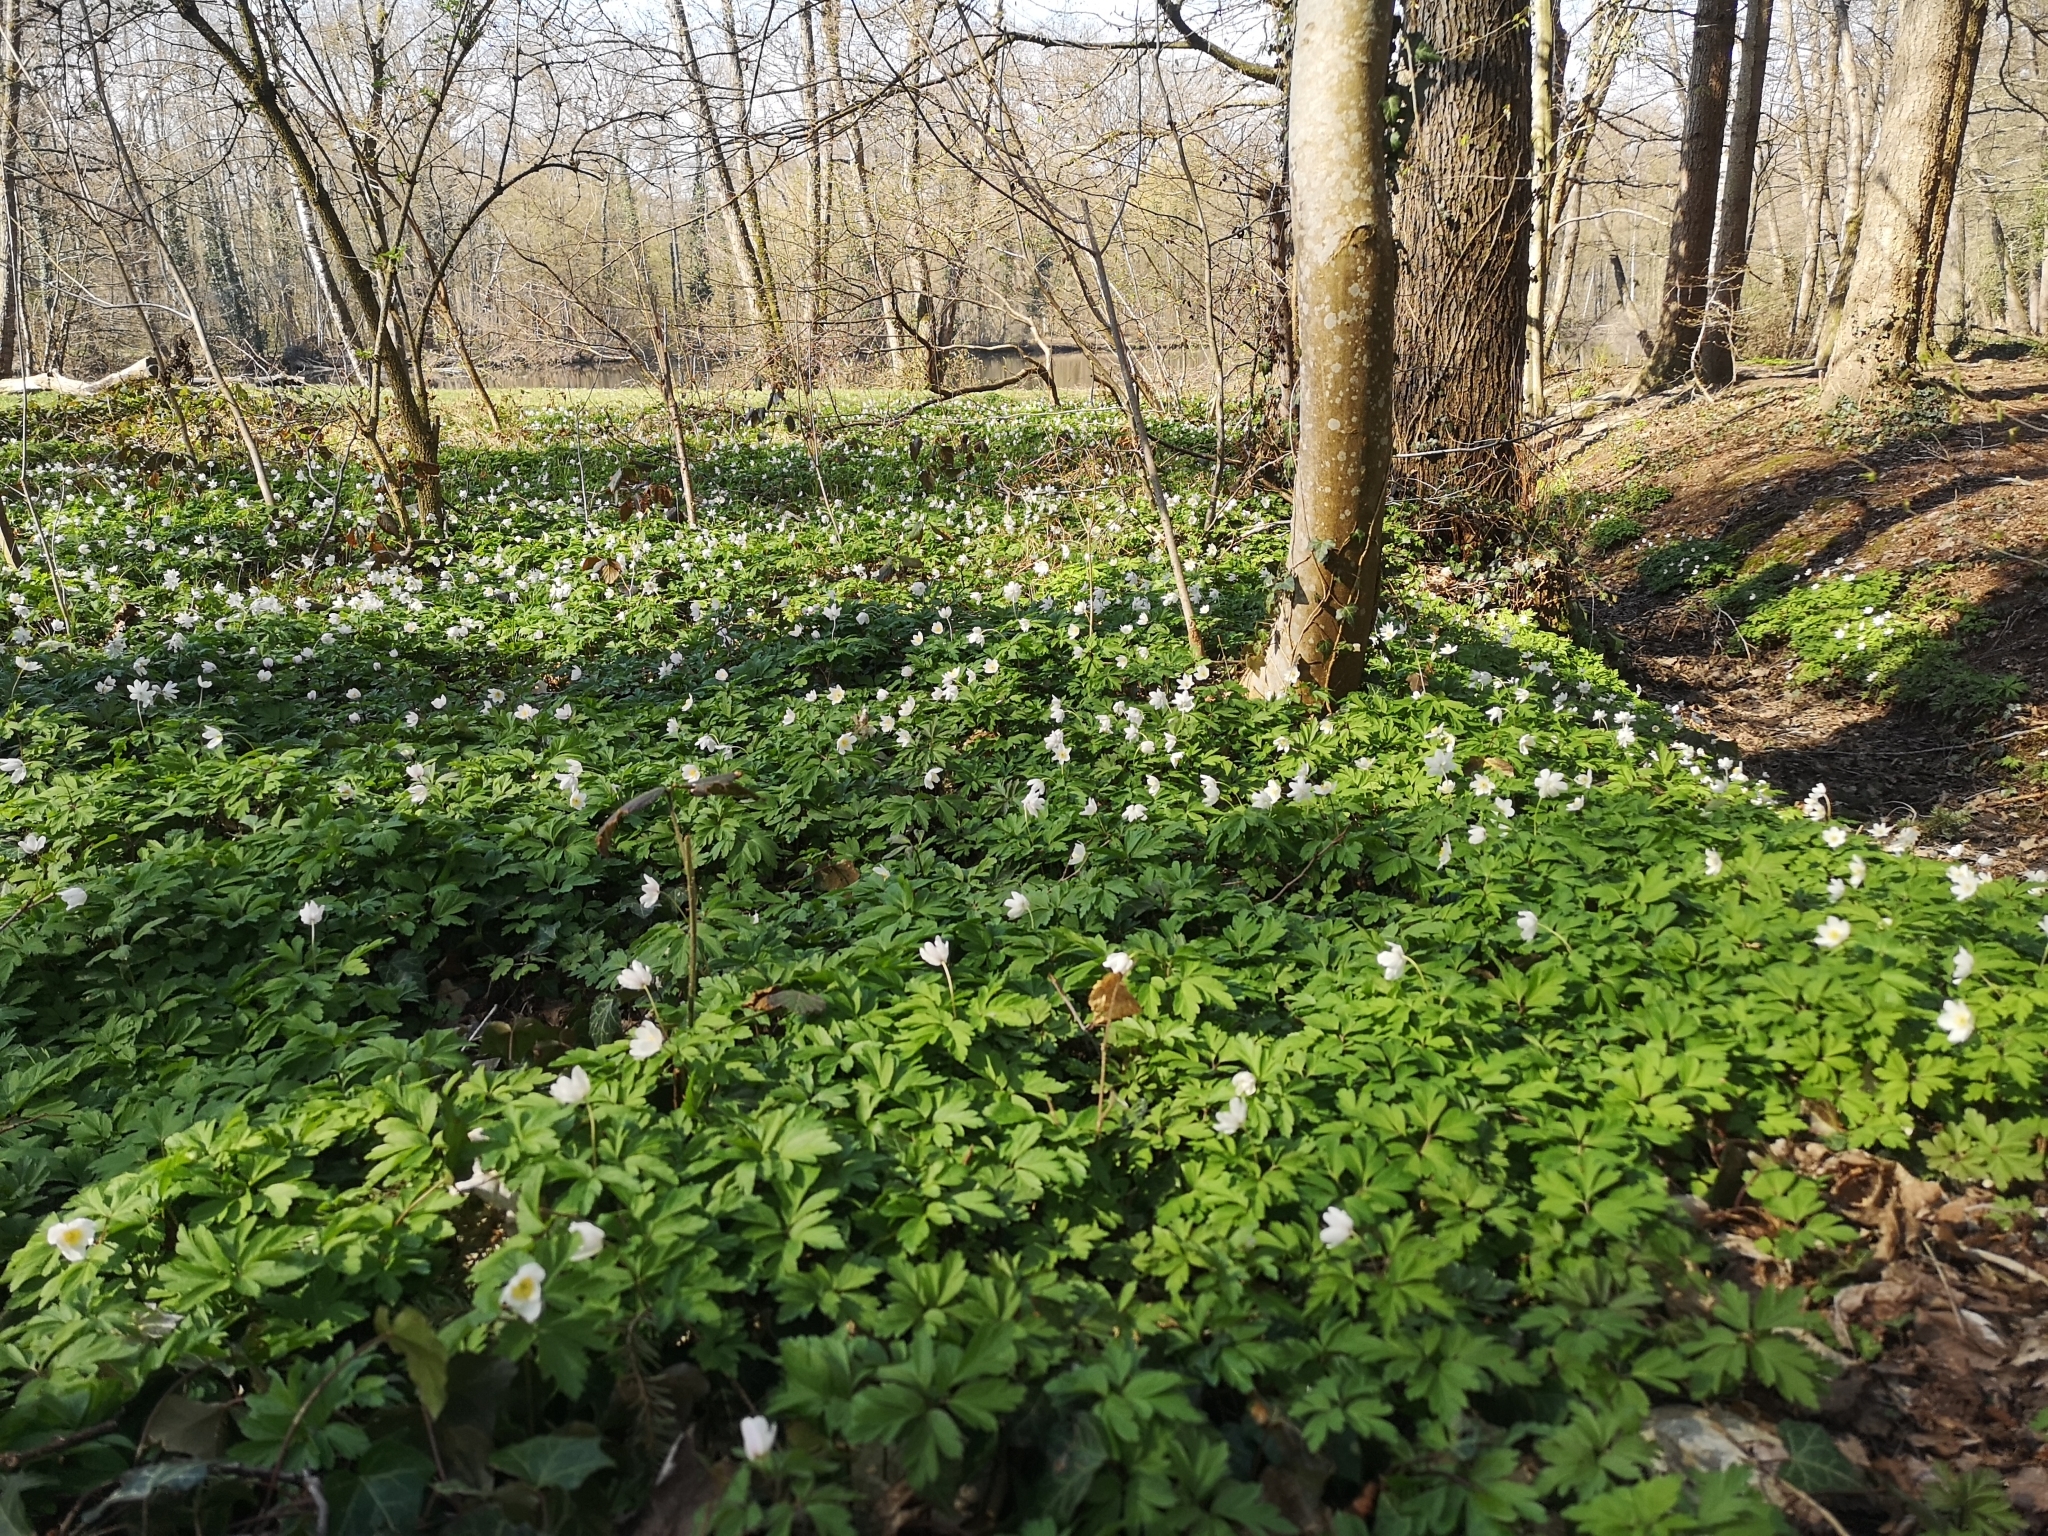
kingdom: Plantae
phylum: Tracheophyta
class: Magnoliopsida
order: Ranunculales
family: Ranunculaceae
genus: Anemone
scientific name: Anemone nemorosa
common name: Wood anemone
